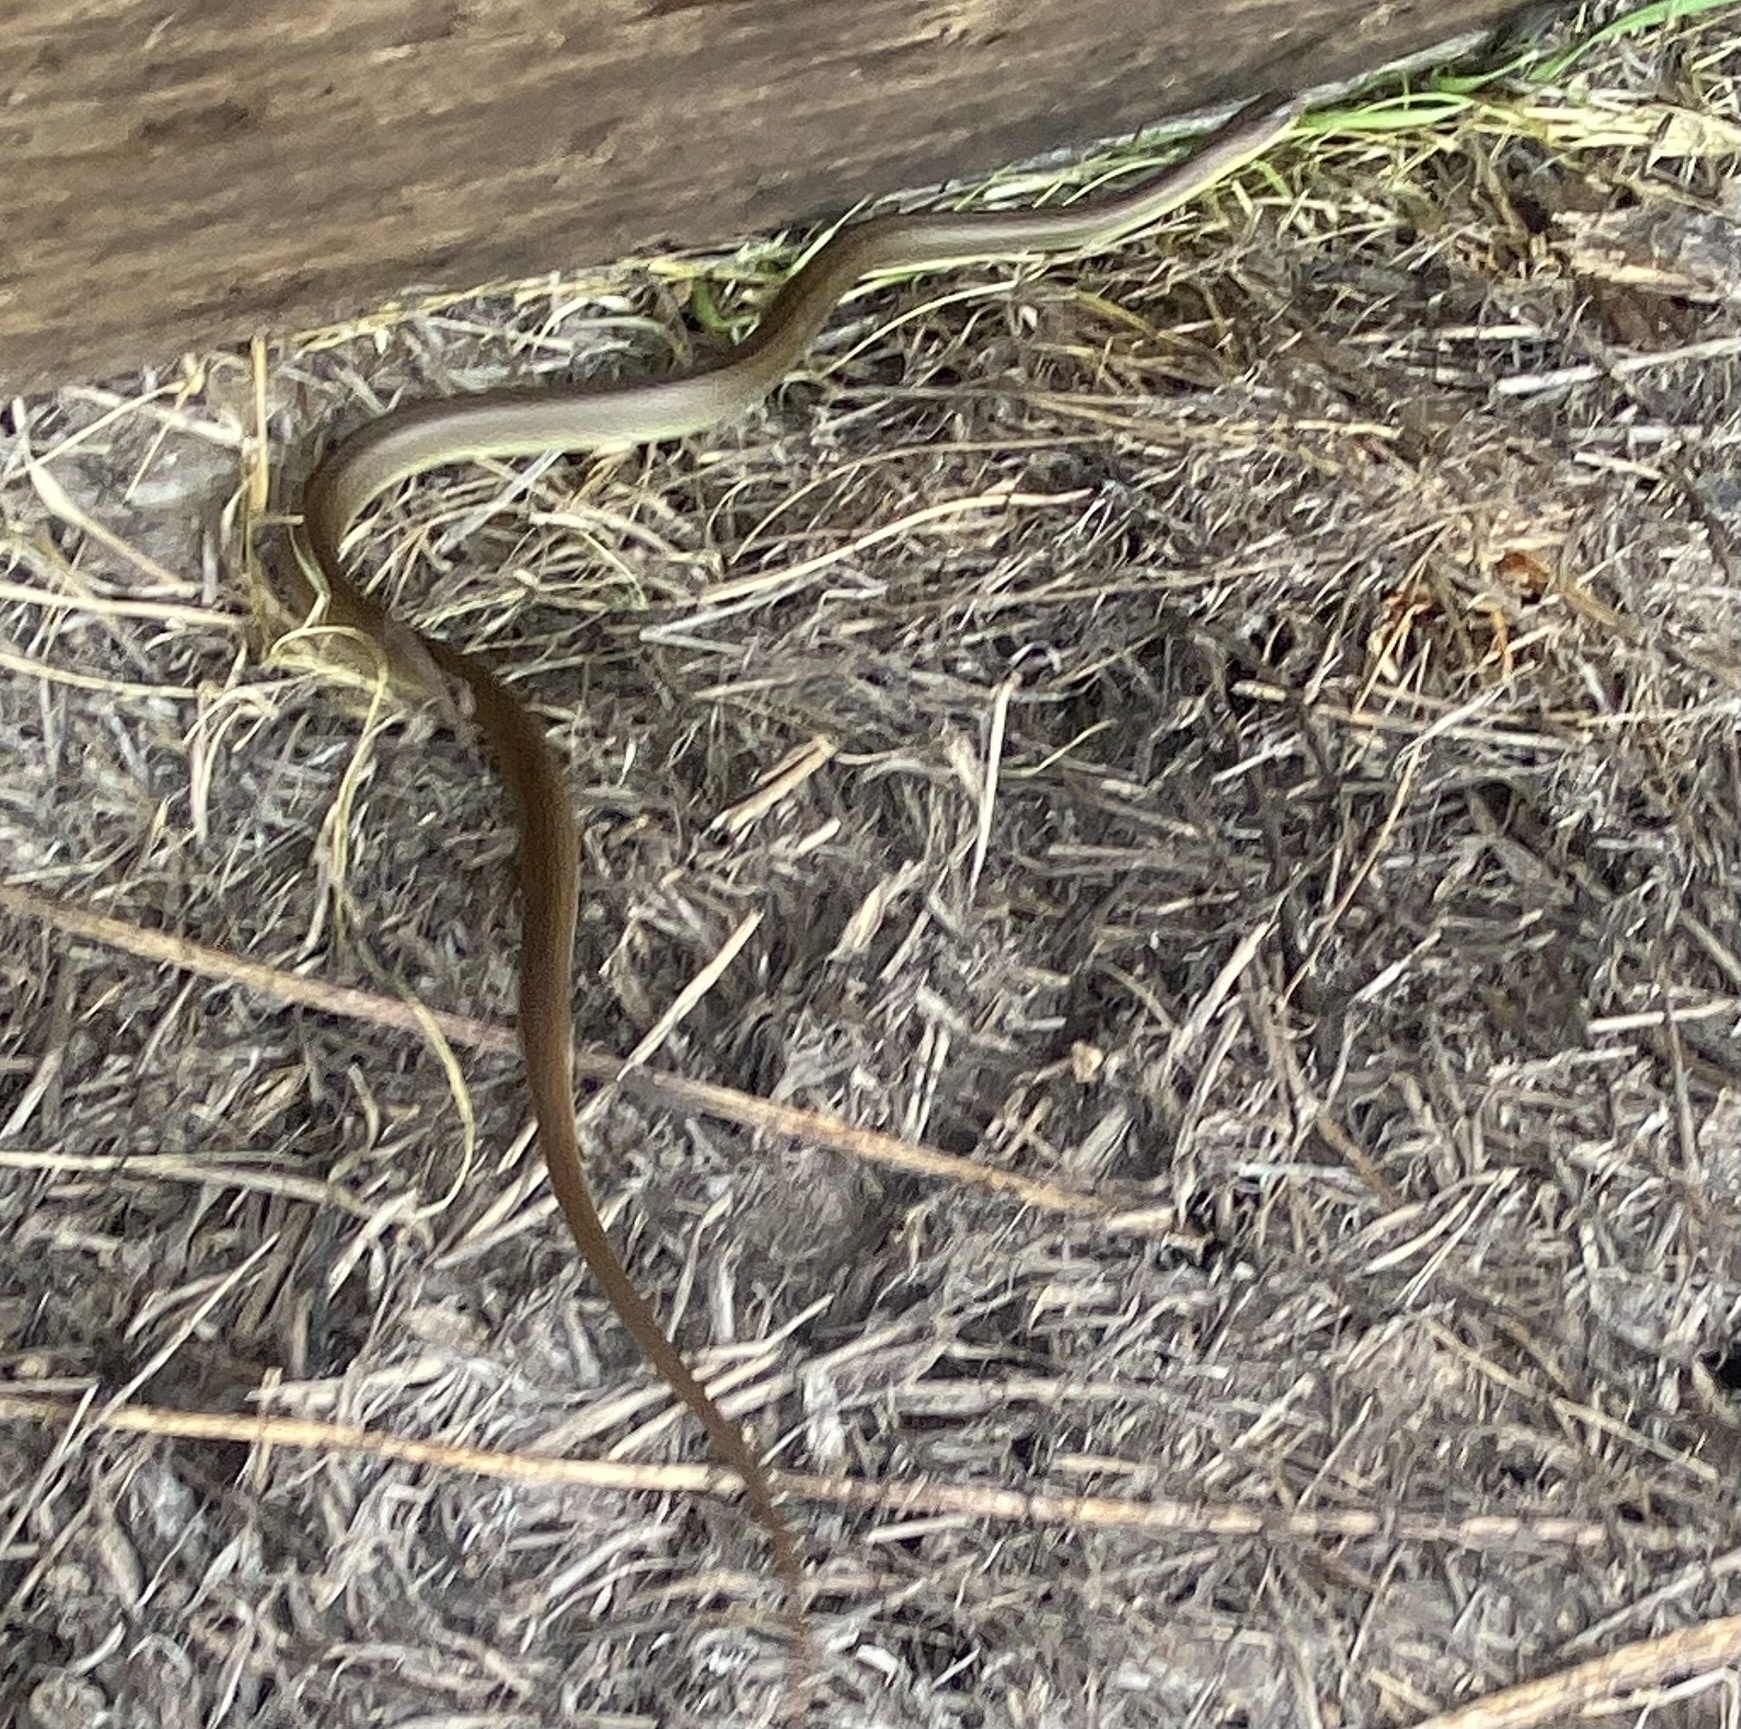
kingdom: Animalia
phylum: Chordata
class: Squamata
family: Colubridae
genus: Coluber
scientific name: Coluber constrictor
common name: Eastern racer
